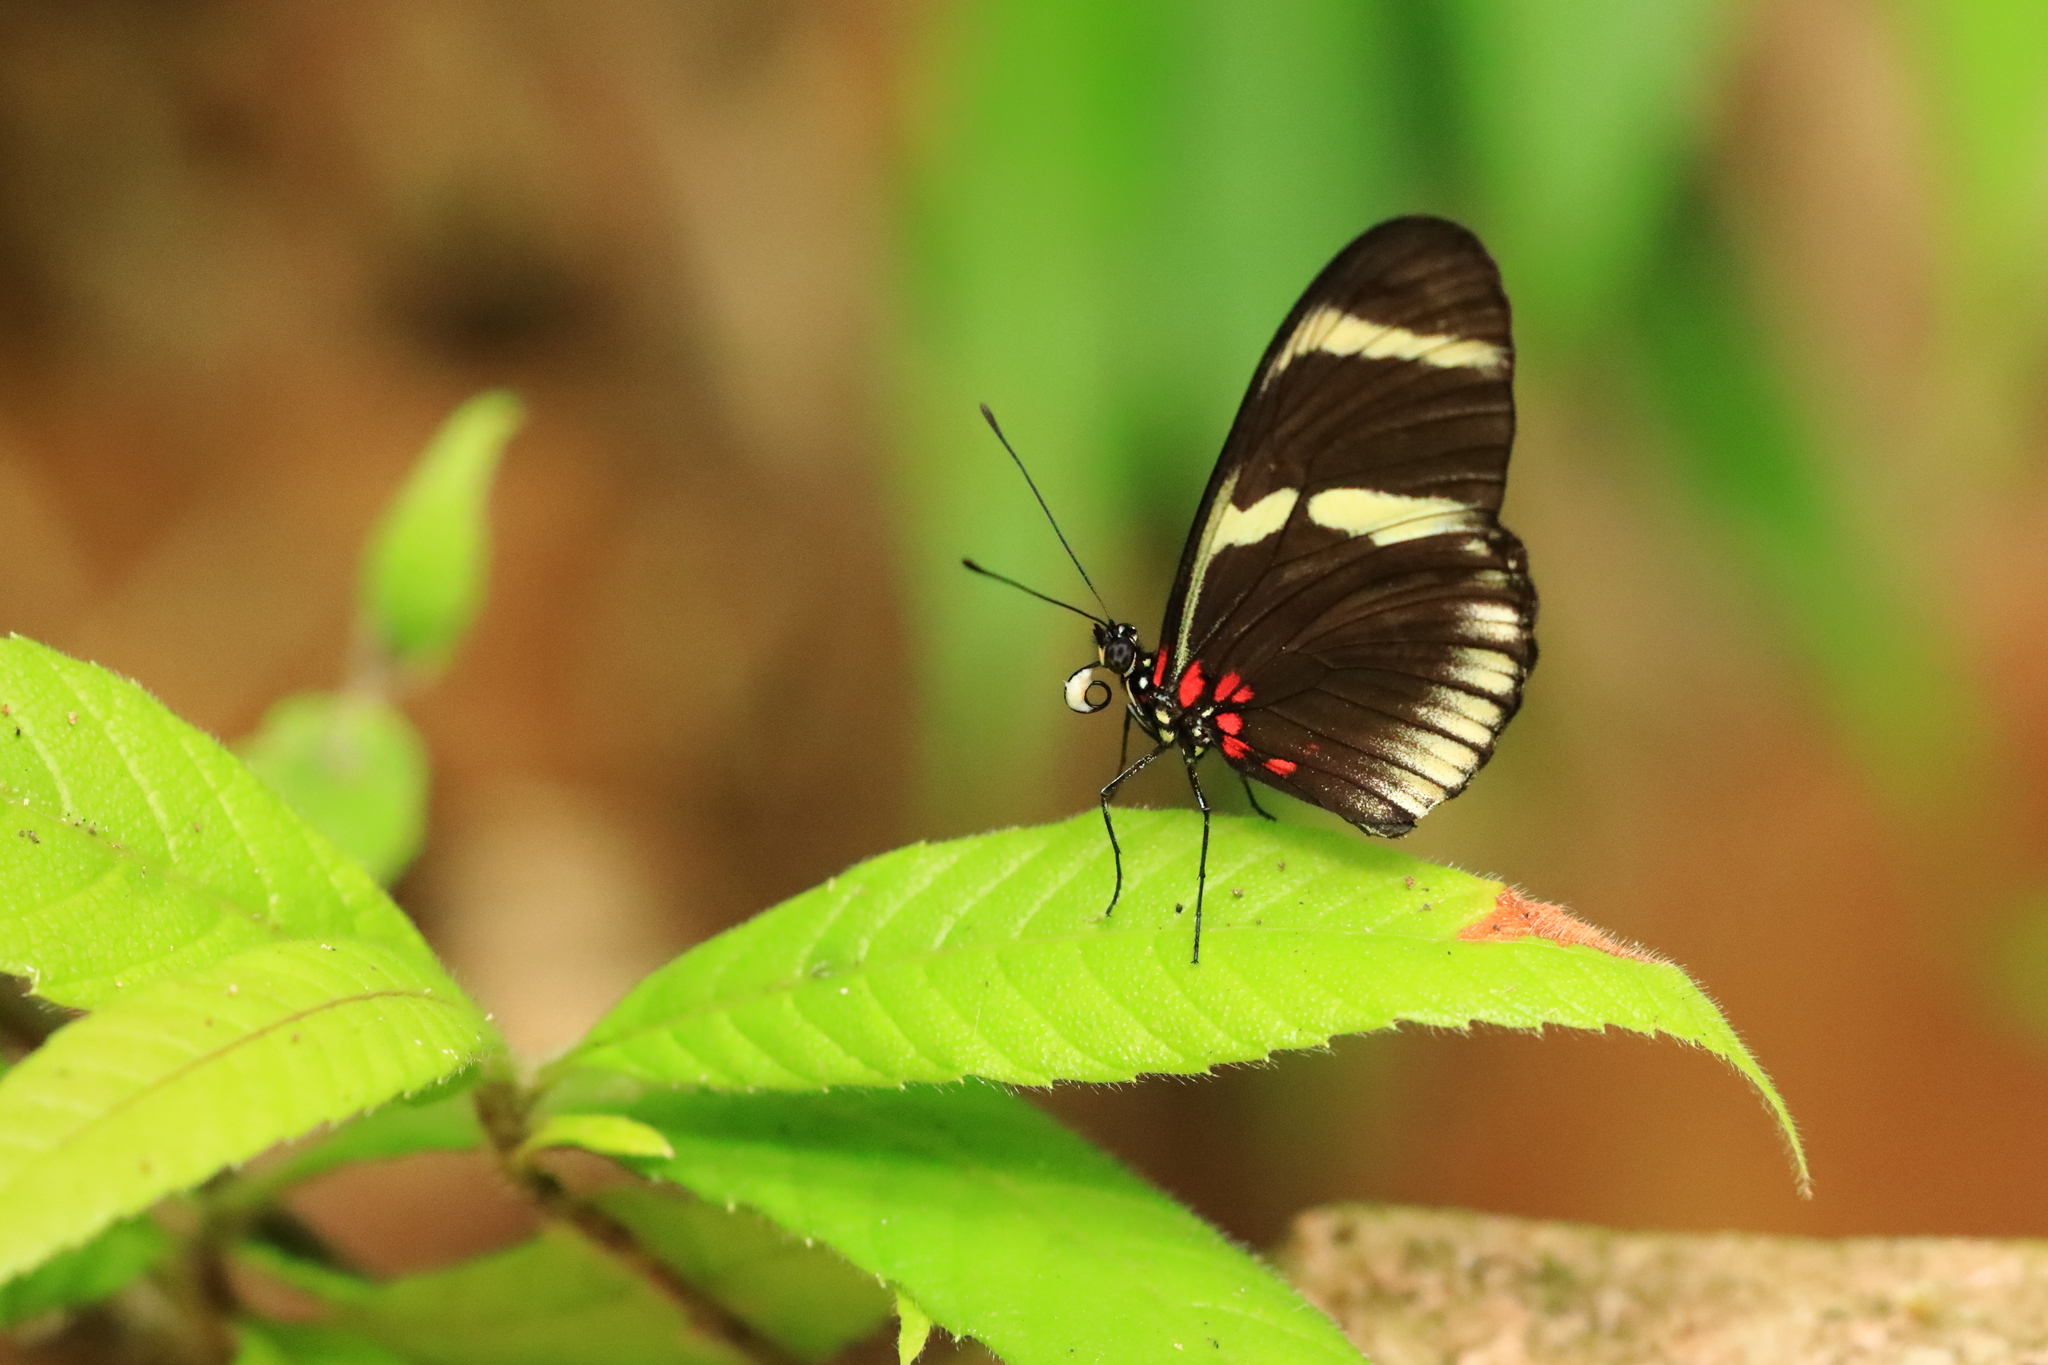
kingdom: Animalia
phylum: Arthropoda
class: Insecta
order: Lepidoptera
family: Nymphalidae
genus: Heliconius
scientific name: Heliconius sara
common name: Sara longwing
